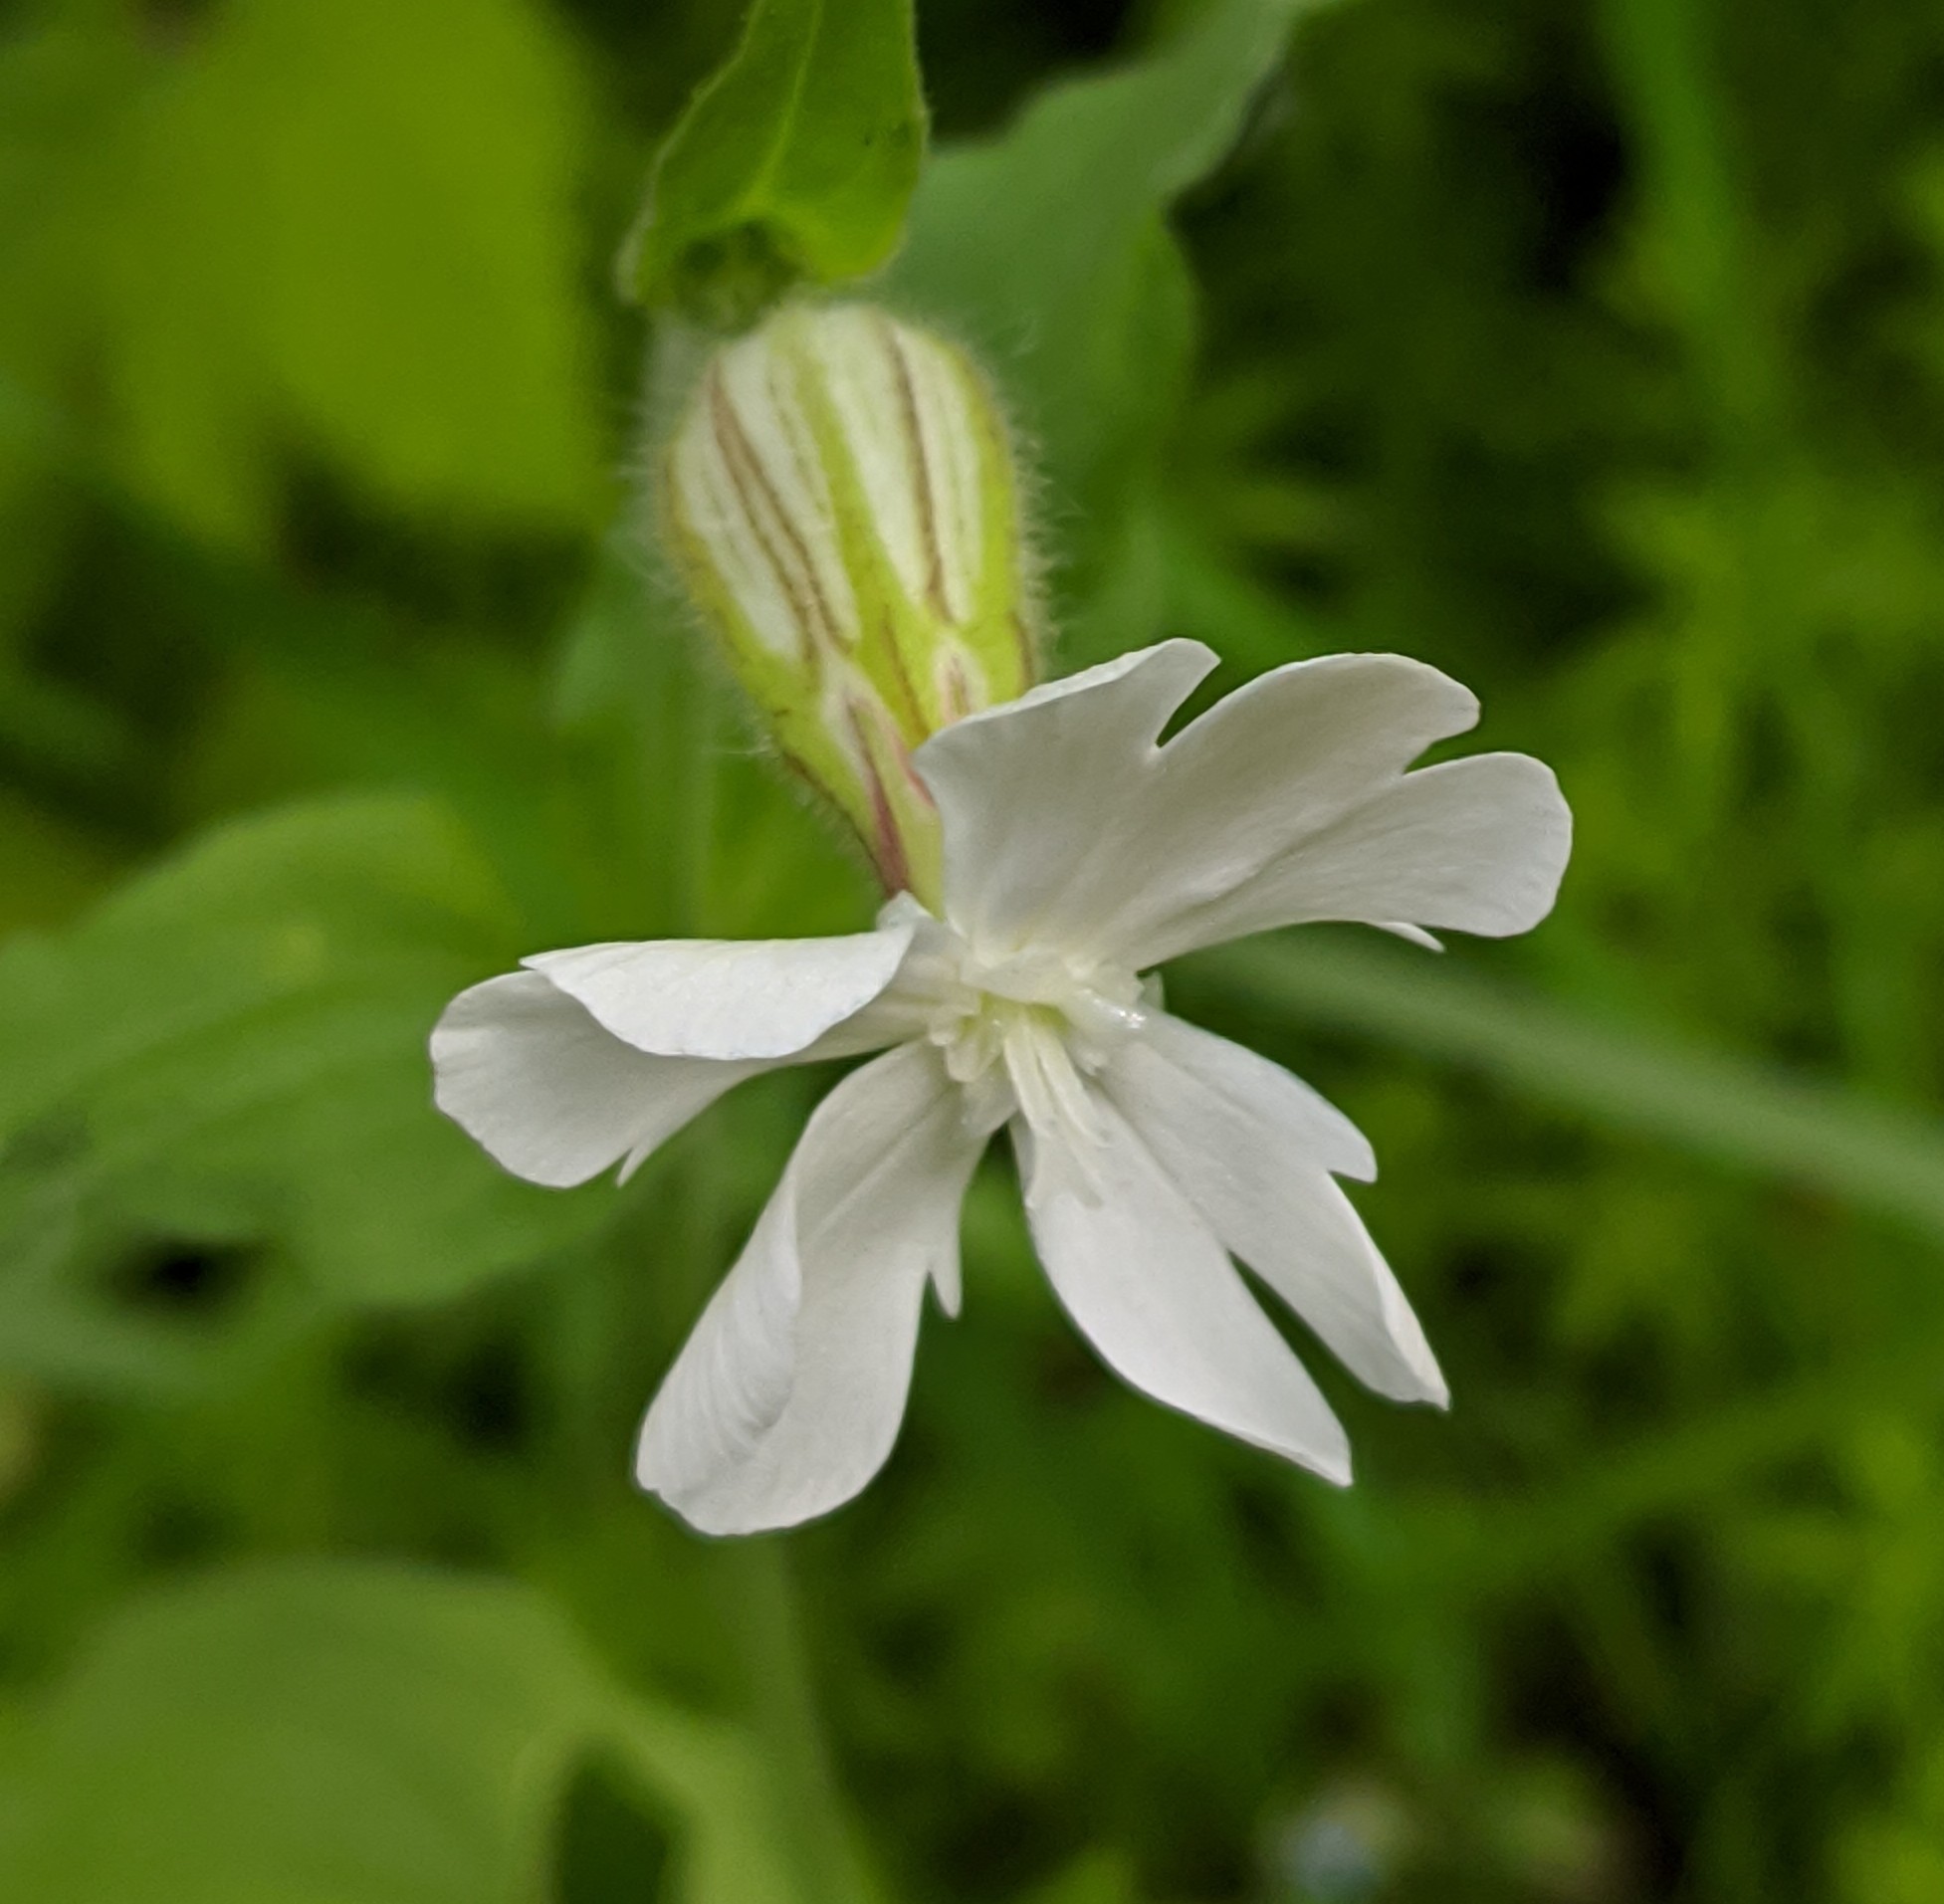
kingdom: Plantae
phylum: Tracheophyta
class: Magnoliopsida
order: Caryophyllales
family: Caryophyllaceae
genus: Silene
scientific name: Silene latifolia
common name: White campion
